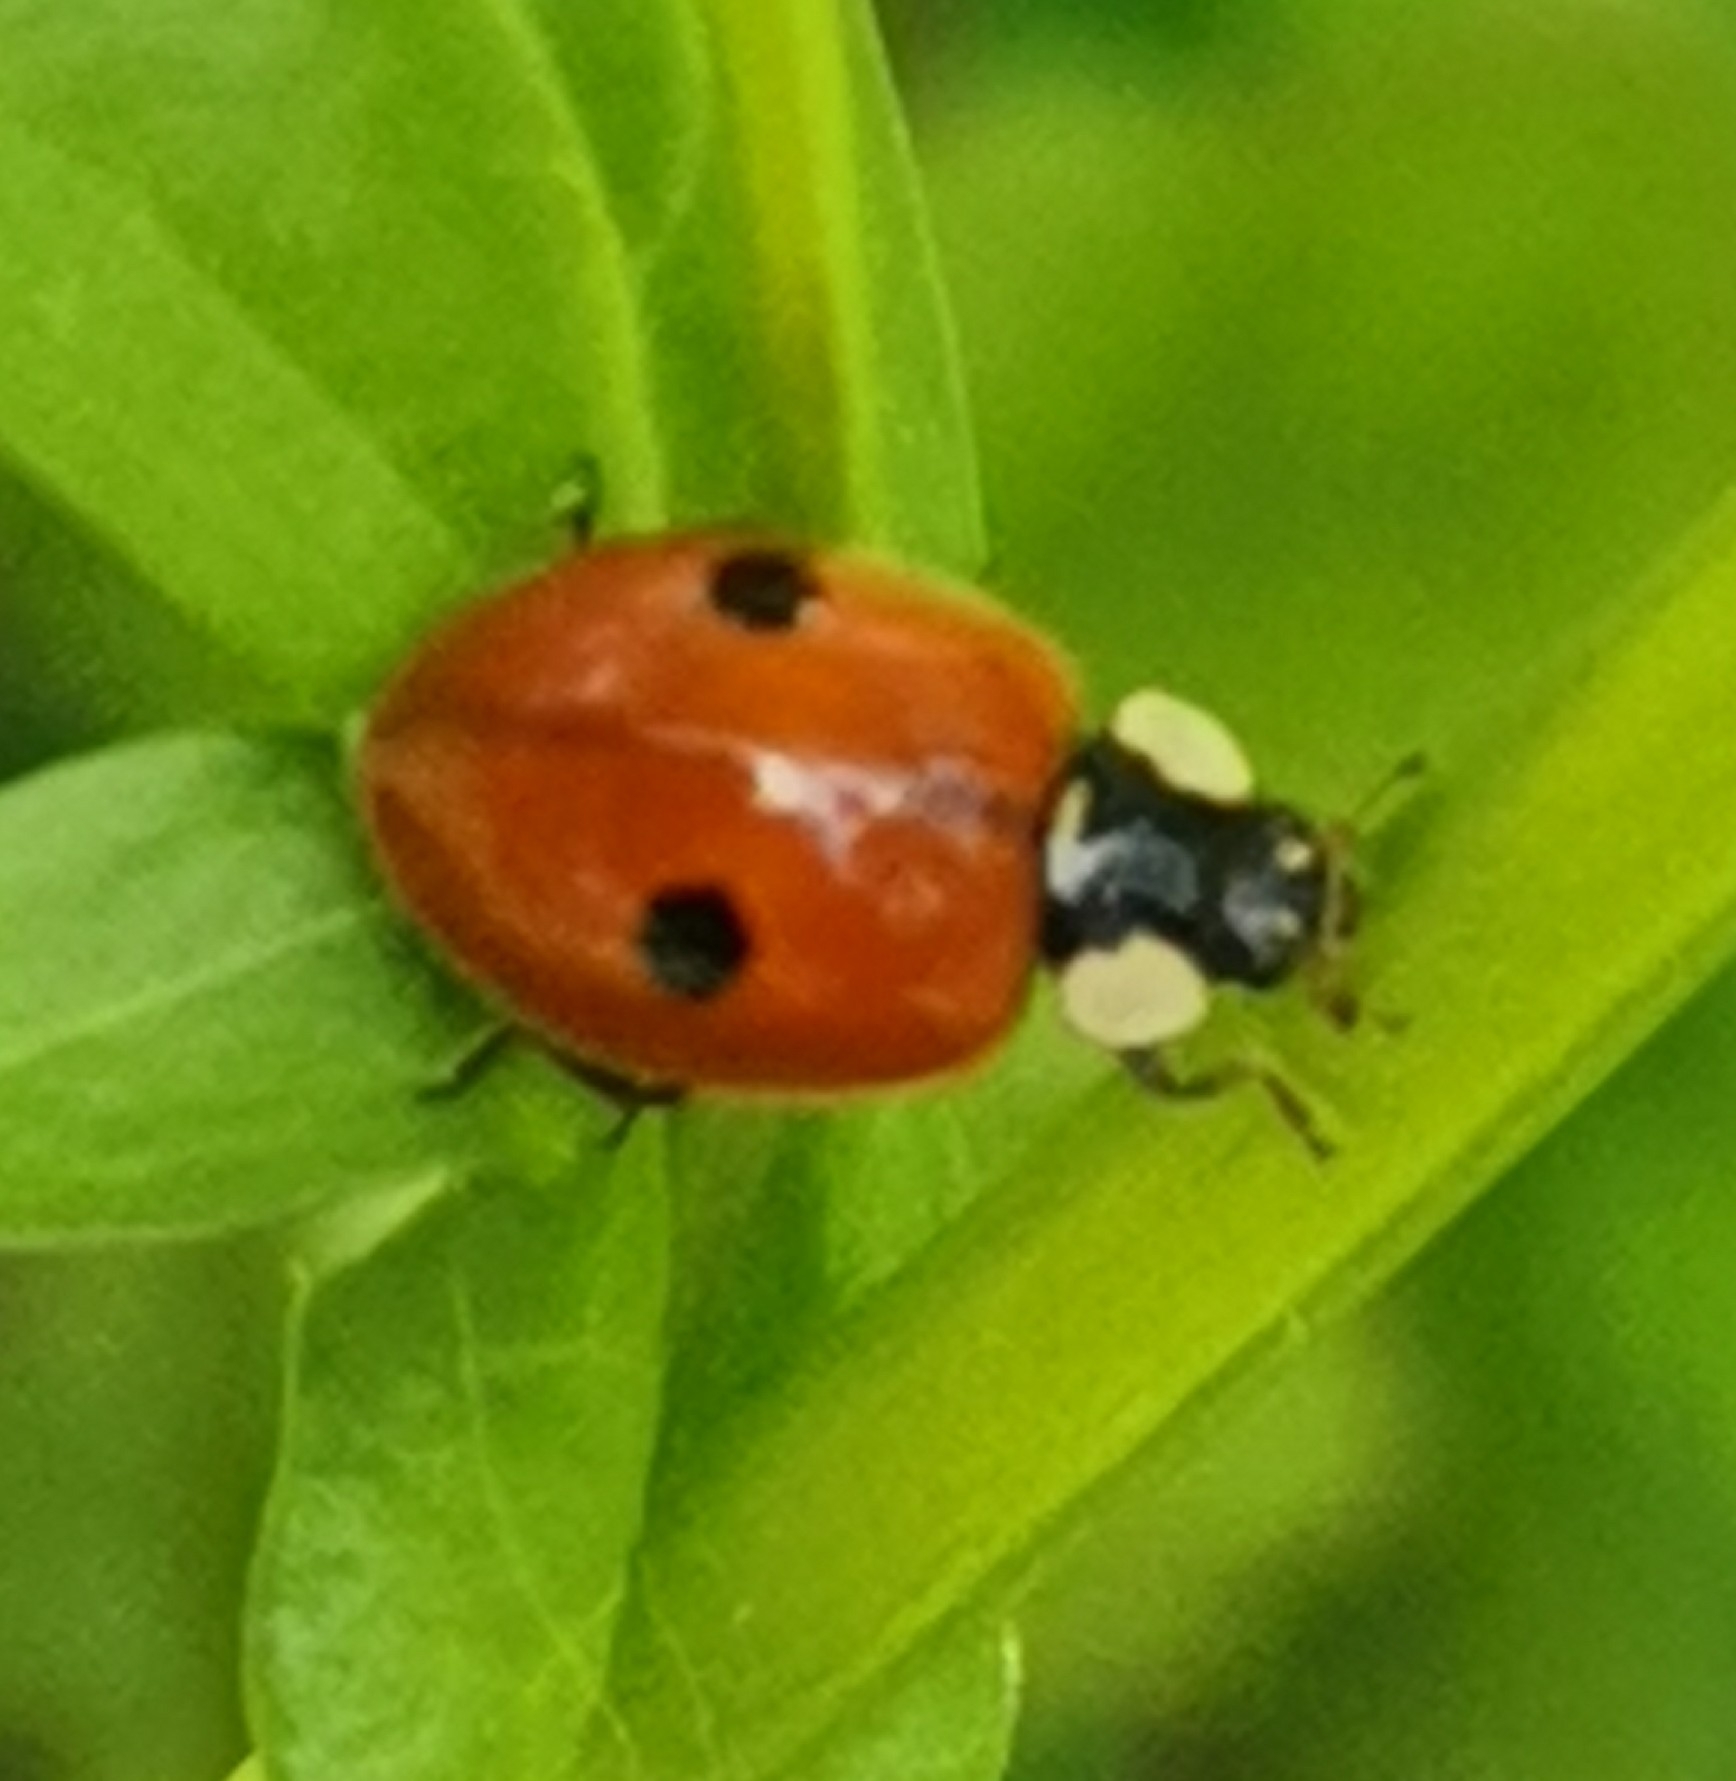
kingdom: Animalia
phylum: Arthropoda
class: Insecta
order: Coleoptera
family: Coccinellidae
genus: Adalia
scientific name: Adalia bipunctata
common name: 2-spot ladybird
